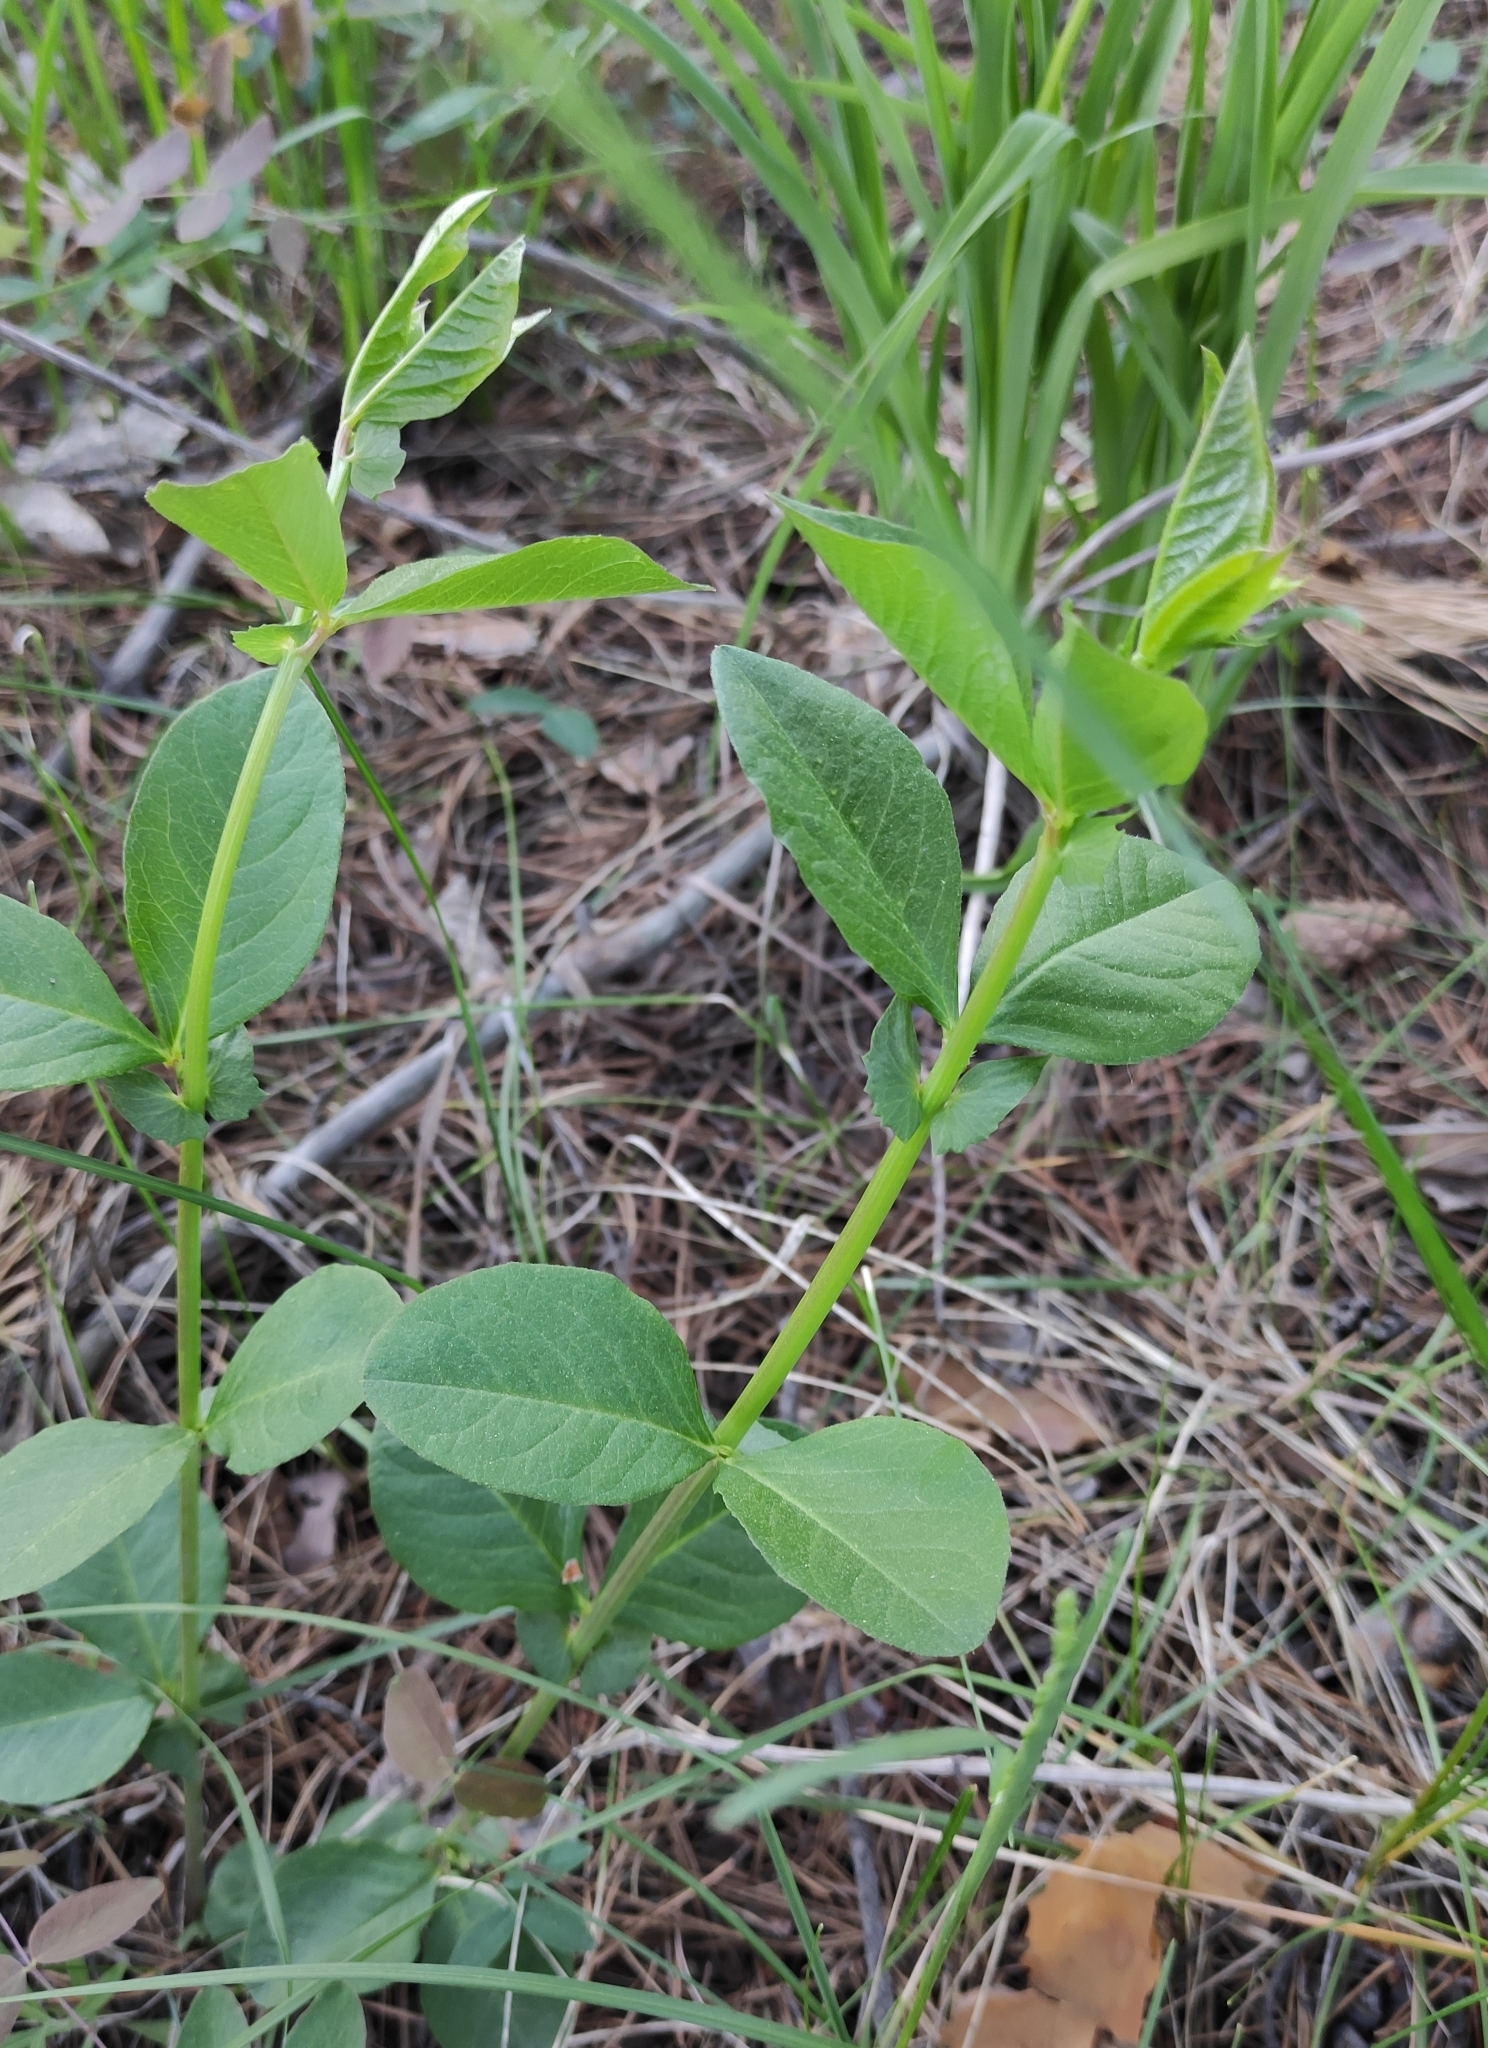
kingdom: Plantae
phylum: Tracheophyta
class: Magnoliopsida
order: Fabales
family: Fabaceae
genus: Vicia
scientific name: Vicia unijuga
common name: Two-leaf vetch
